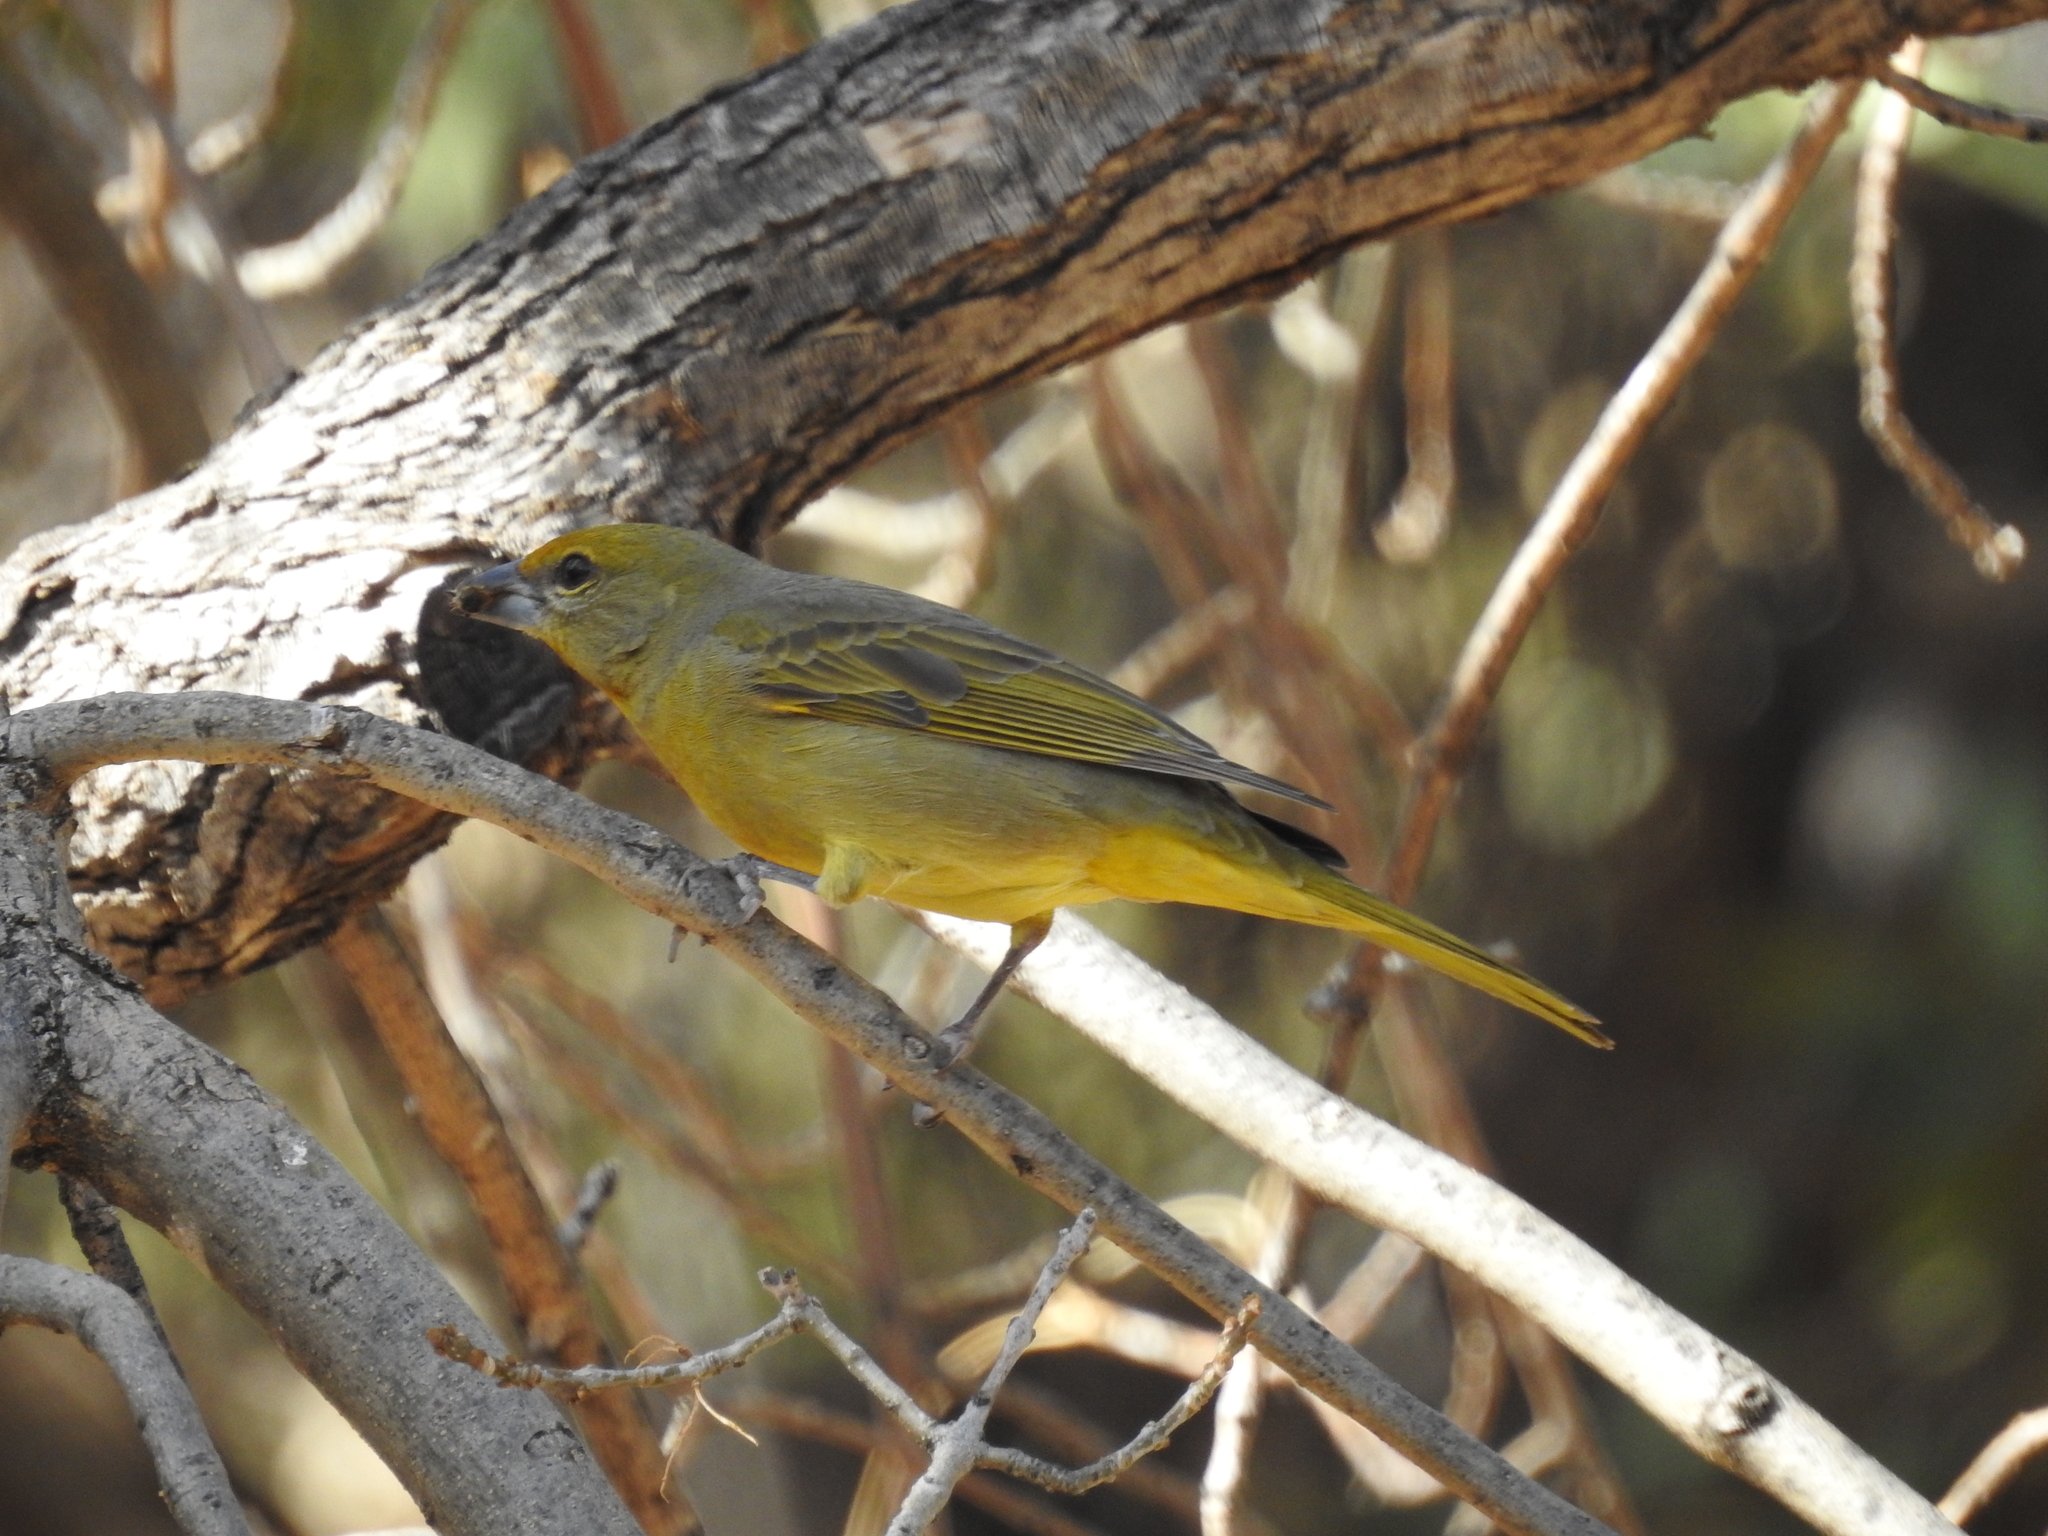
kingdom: Animalia
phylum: Chordata
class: Aves
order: Passeriformes
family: Cardinalidae
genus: Piranga
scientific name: Piranga flava
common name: Red tanager
